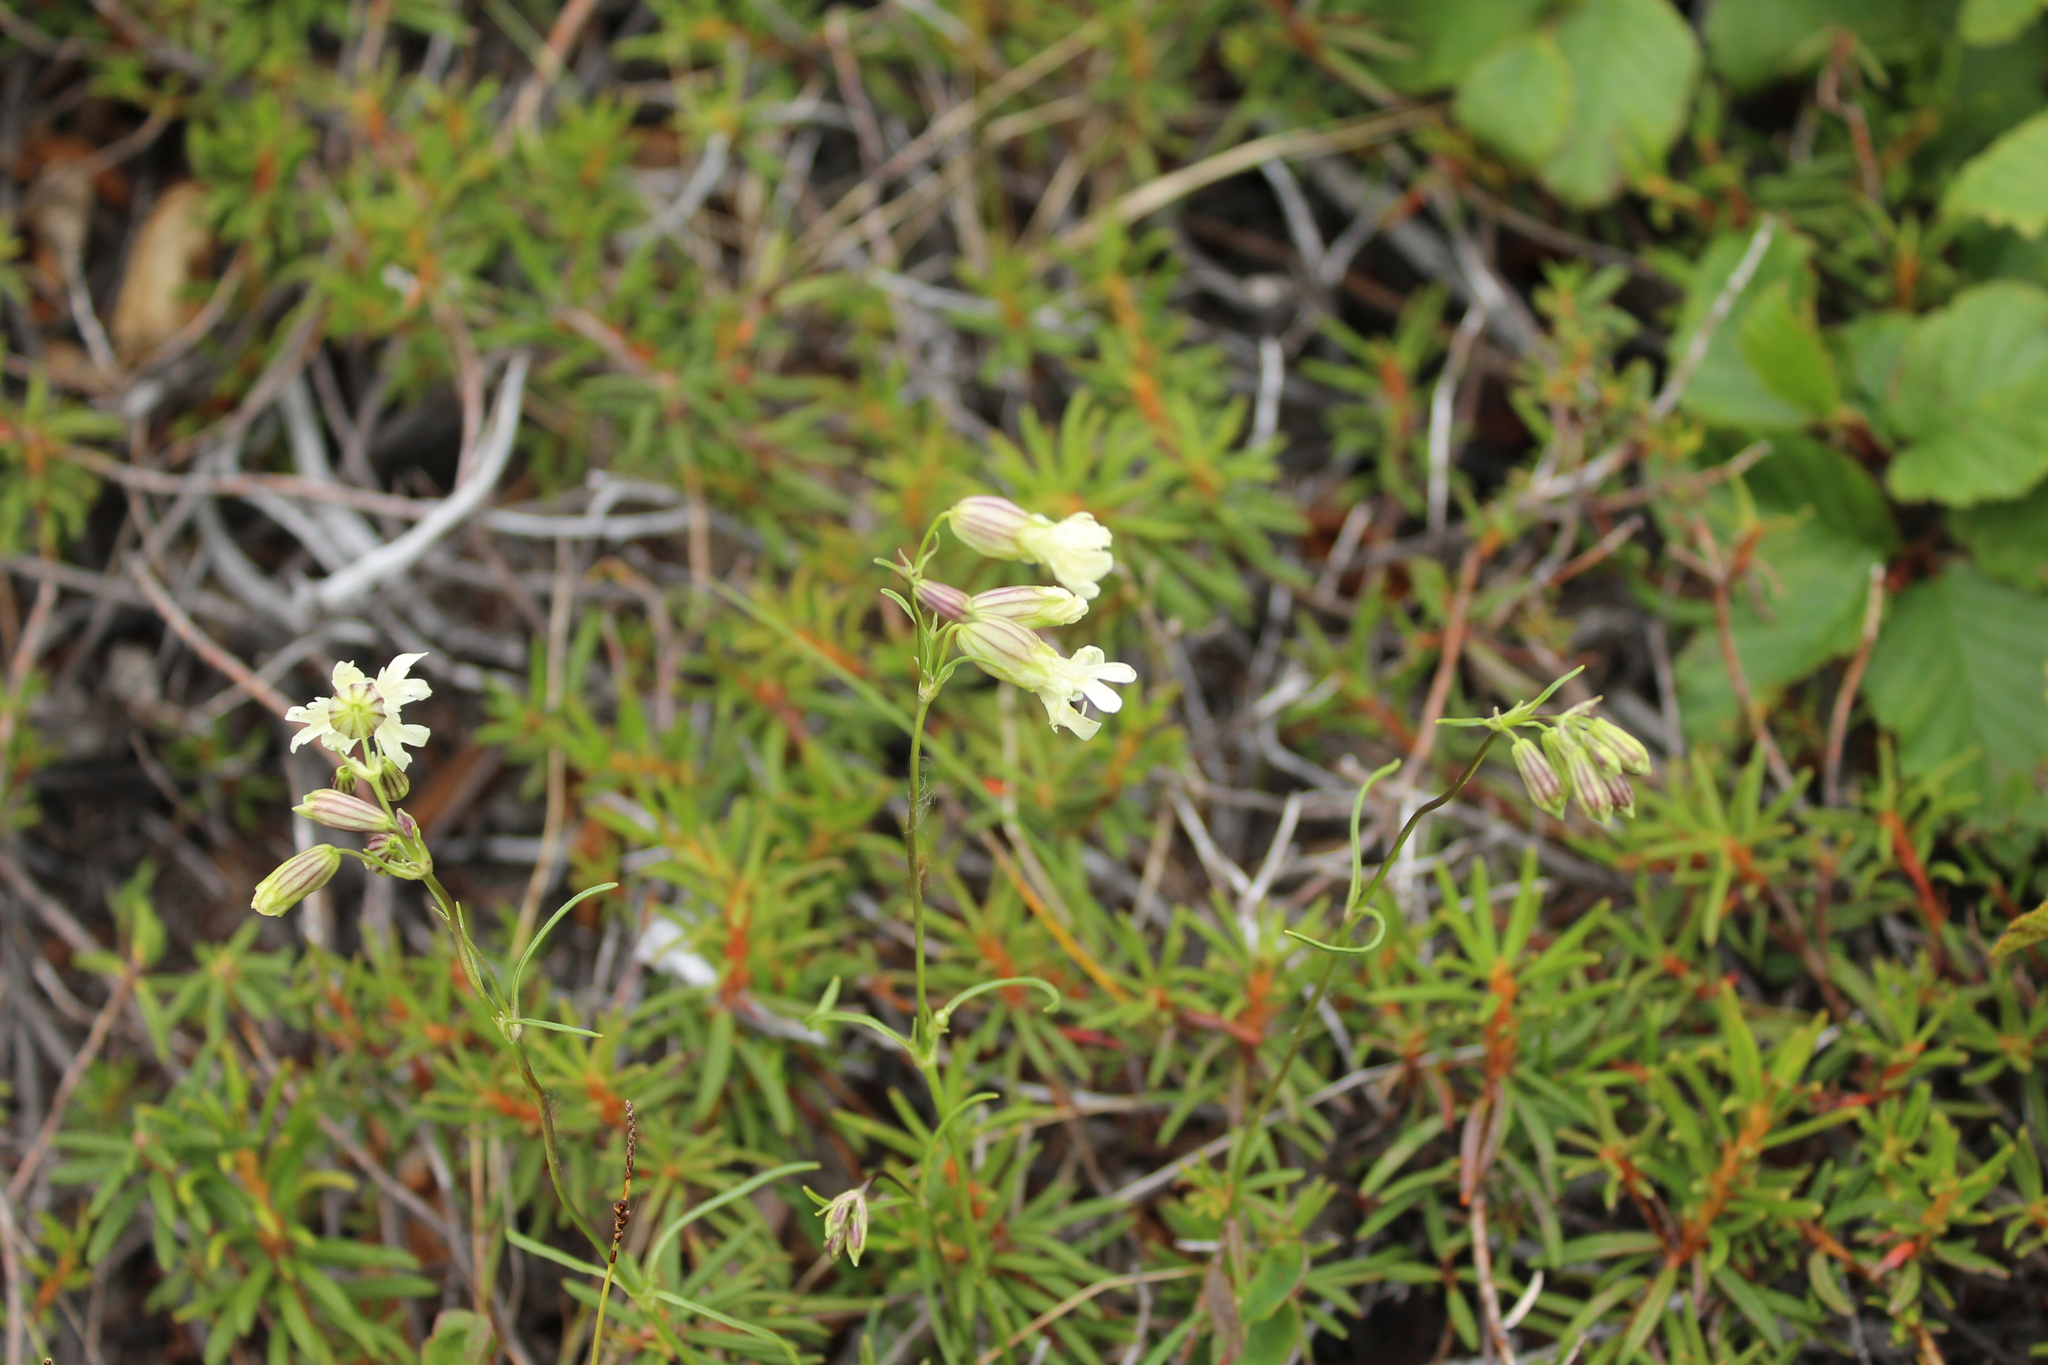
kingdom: Plantae
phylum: Tracheophyta
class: Magnoliopsida
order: Caryophyllales
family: Caryophyllaceae
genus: Silene
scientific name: Silene chamarensis
